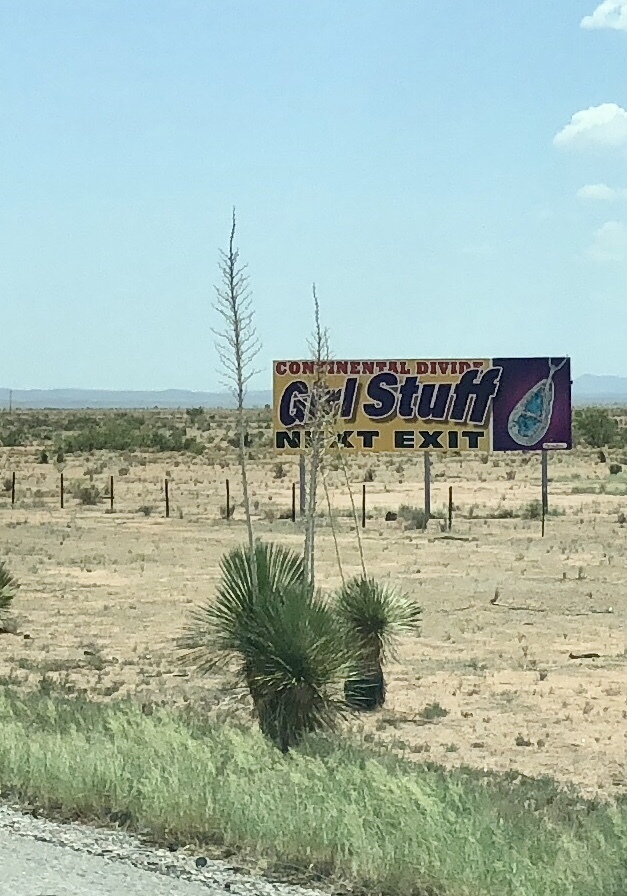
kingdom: Plantae
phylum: Tracheophyta
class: Liliopsida
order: Asparagales
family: Asparagaceae
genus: Yucca
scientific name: Yucca elata
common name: Palmella
